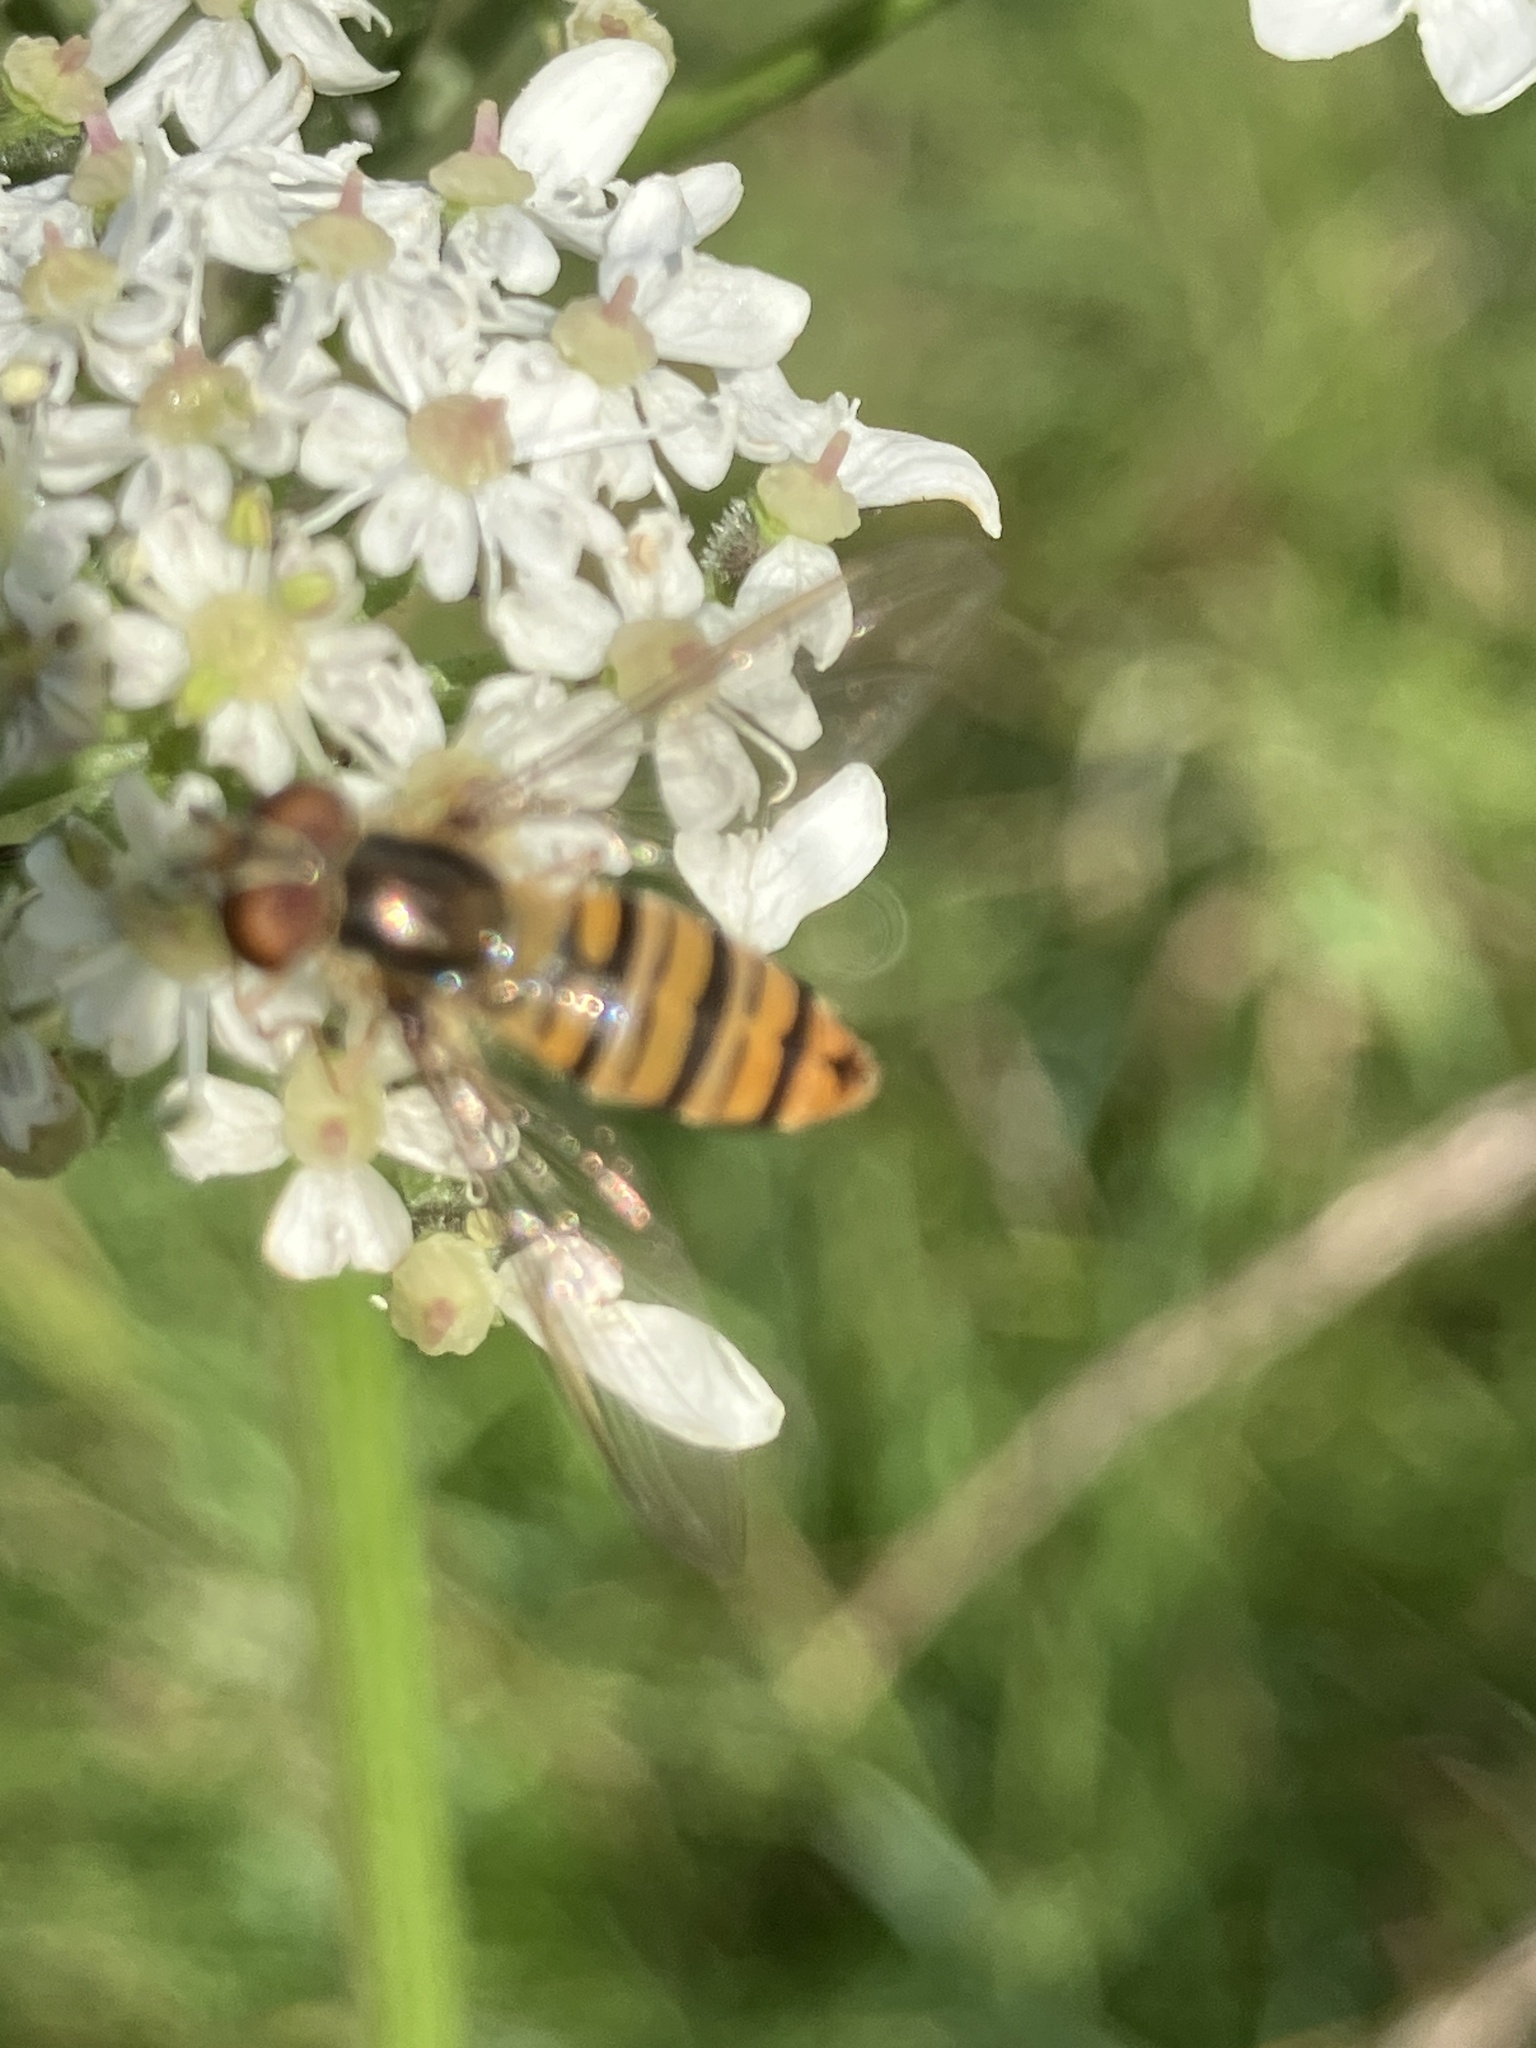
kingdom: Animalia
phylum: Arthropoda
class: Insecta
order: Diptera
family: Syrphidae
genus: Episyrphus
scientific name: Episyrphus balteatus
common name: Marmalade hoverfly
